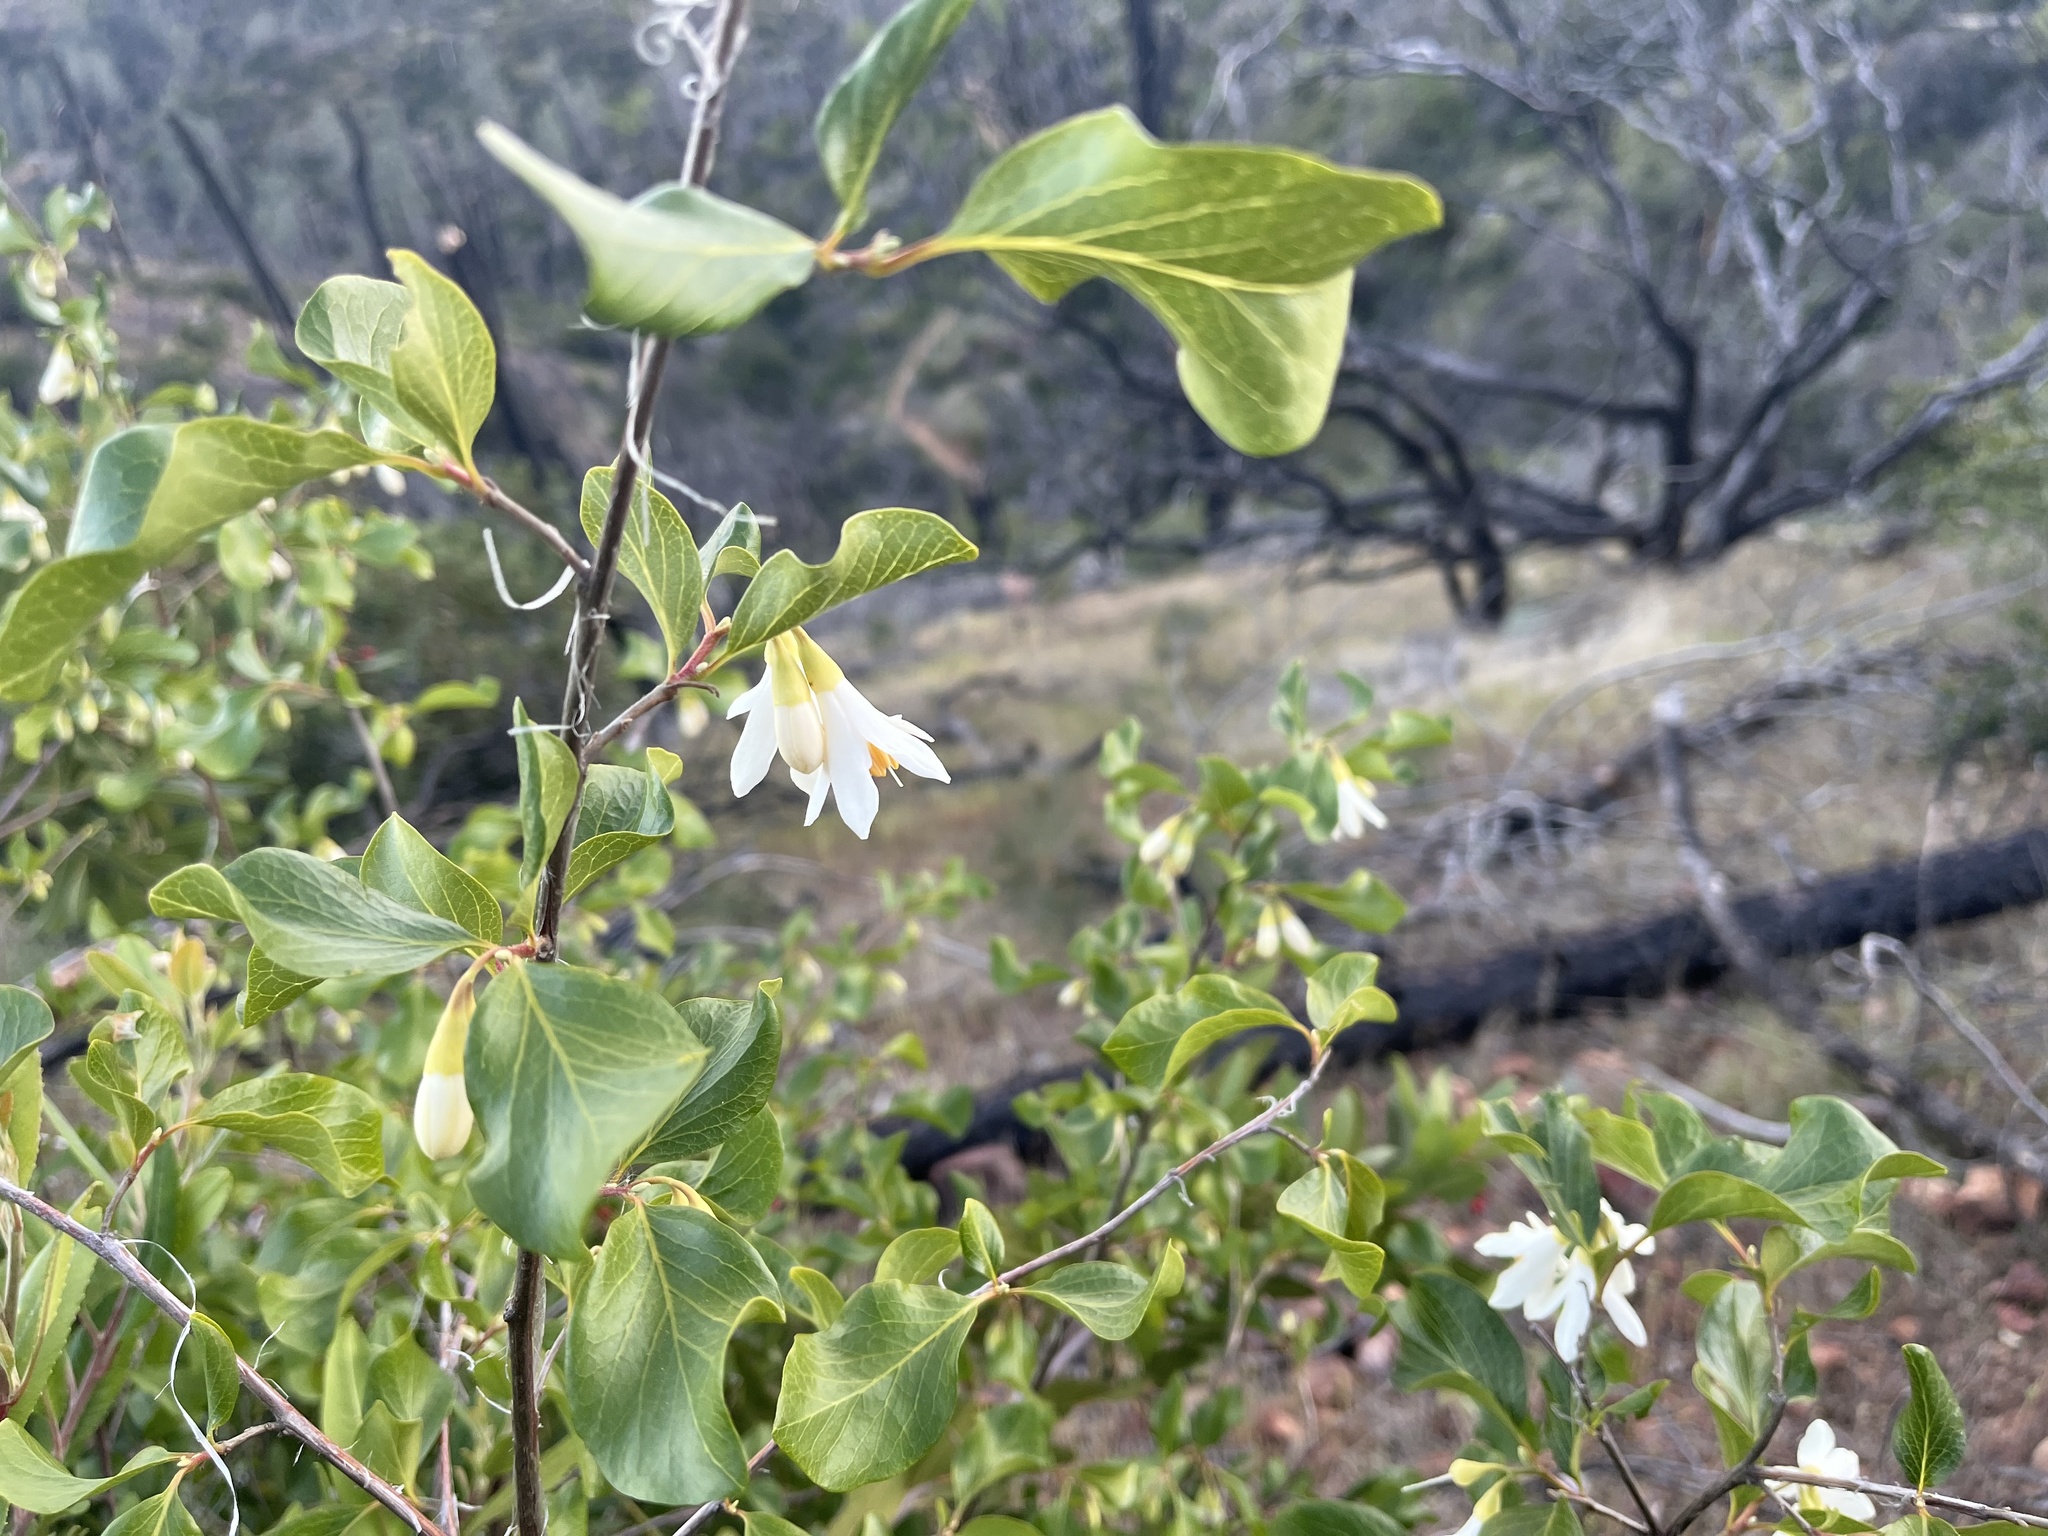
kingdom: Plantae
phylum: Tracheophyta
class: Magnoliopsida
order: Ericales
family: Styracaceae
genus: Styrax
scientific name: Styrax redivivus
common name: California styrax
